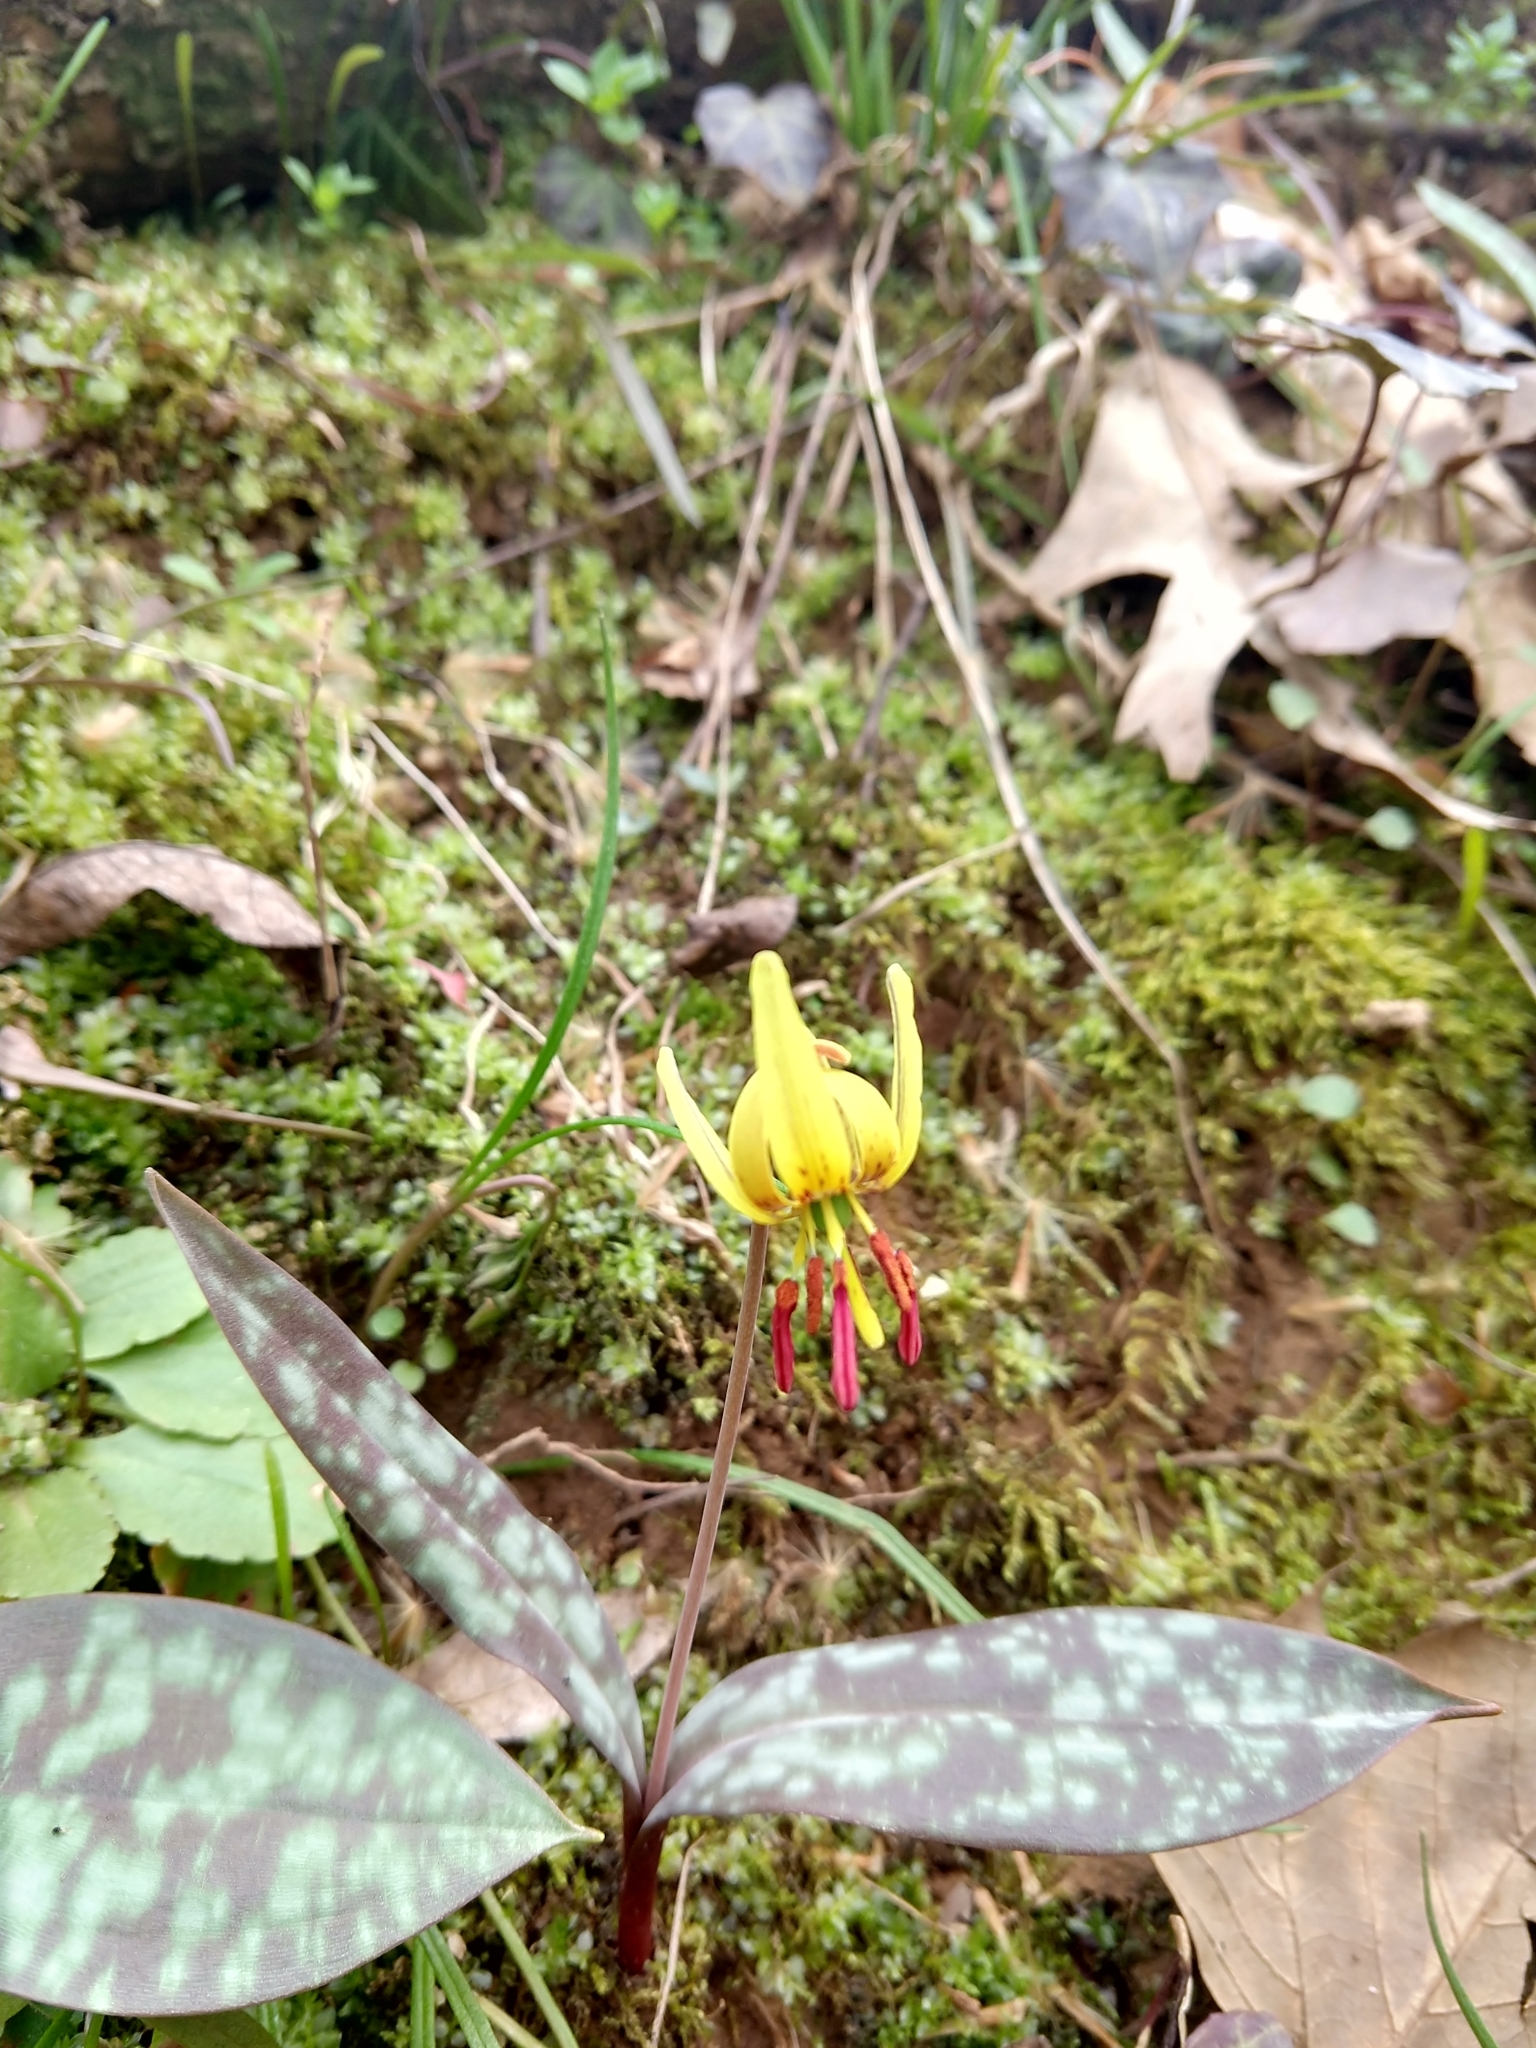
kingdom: Plantae
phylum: Tracheophyta
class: Liliopsida
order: Liliales
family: Liliaceae
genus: Erythronium
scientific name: Erythronium umbilicatum
